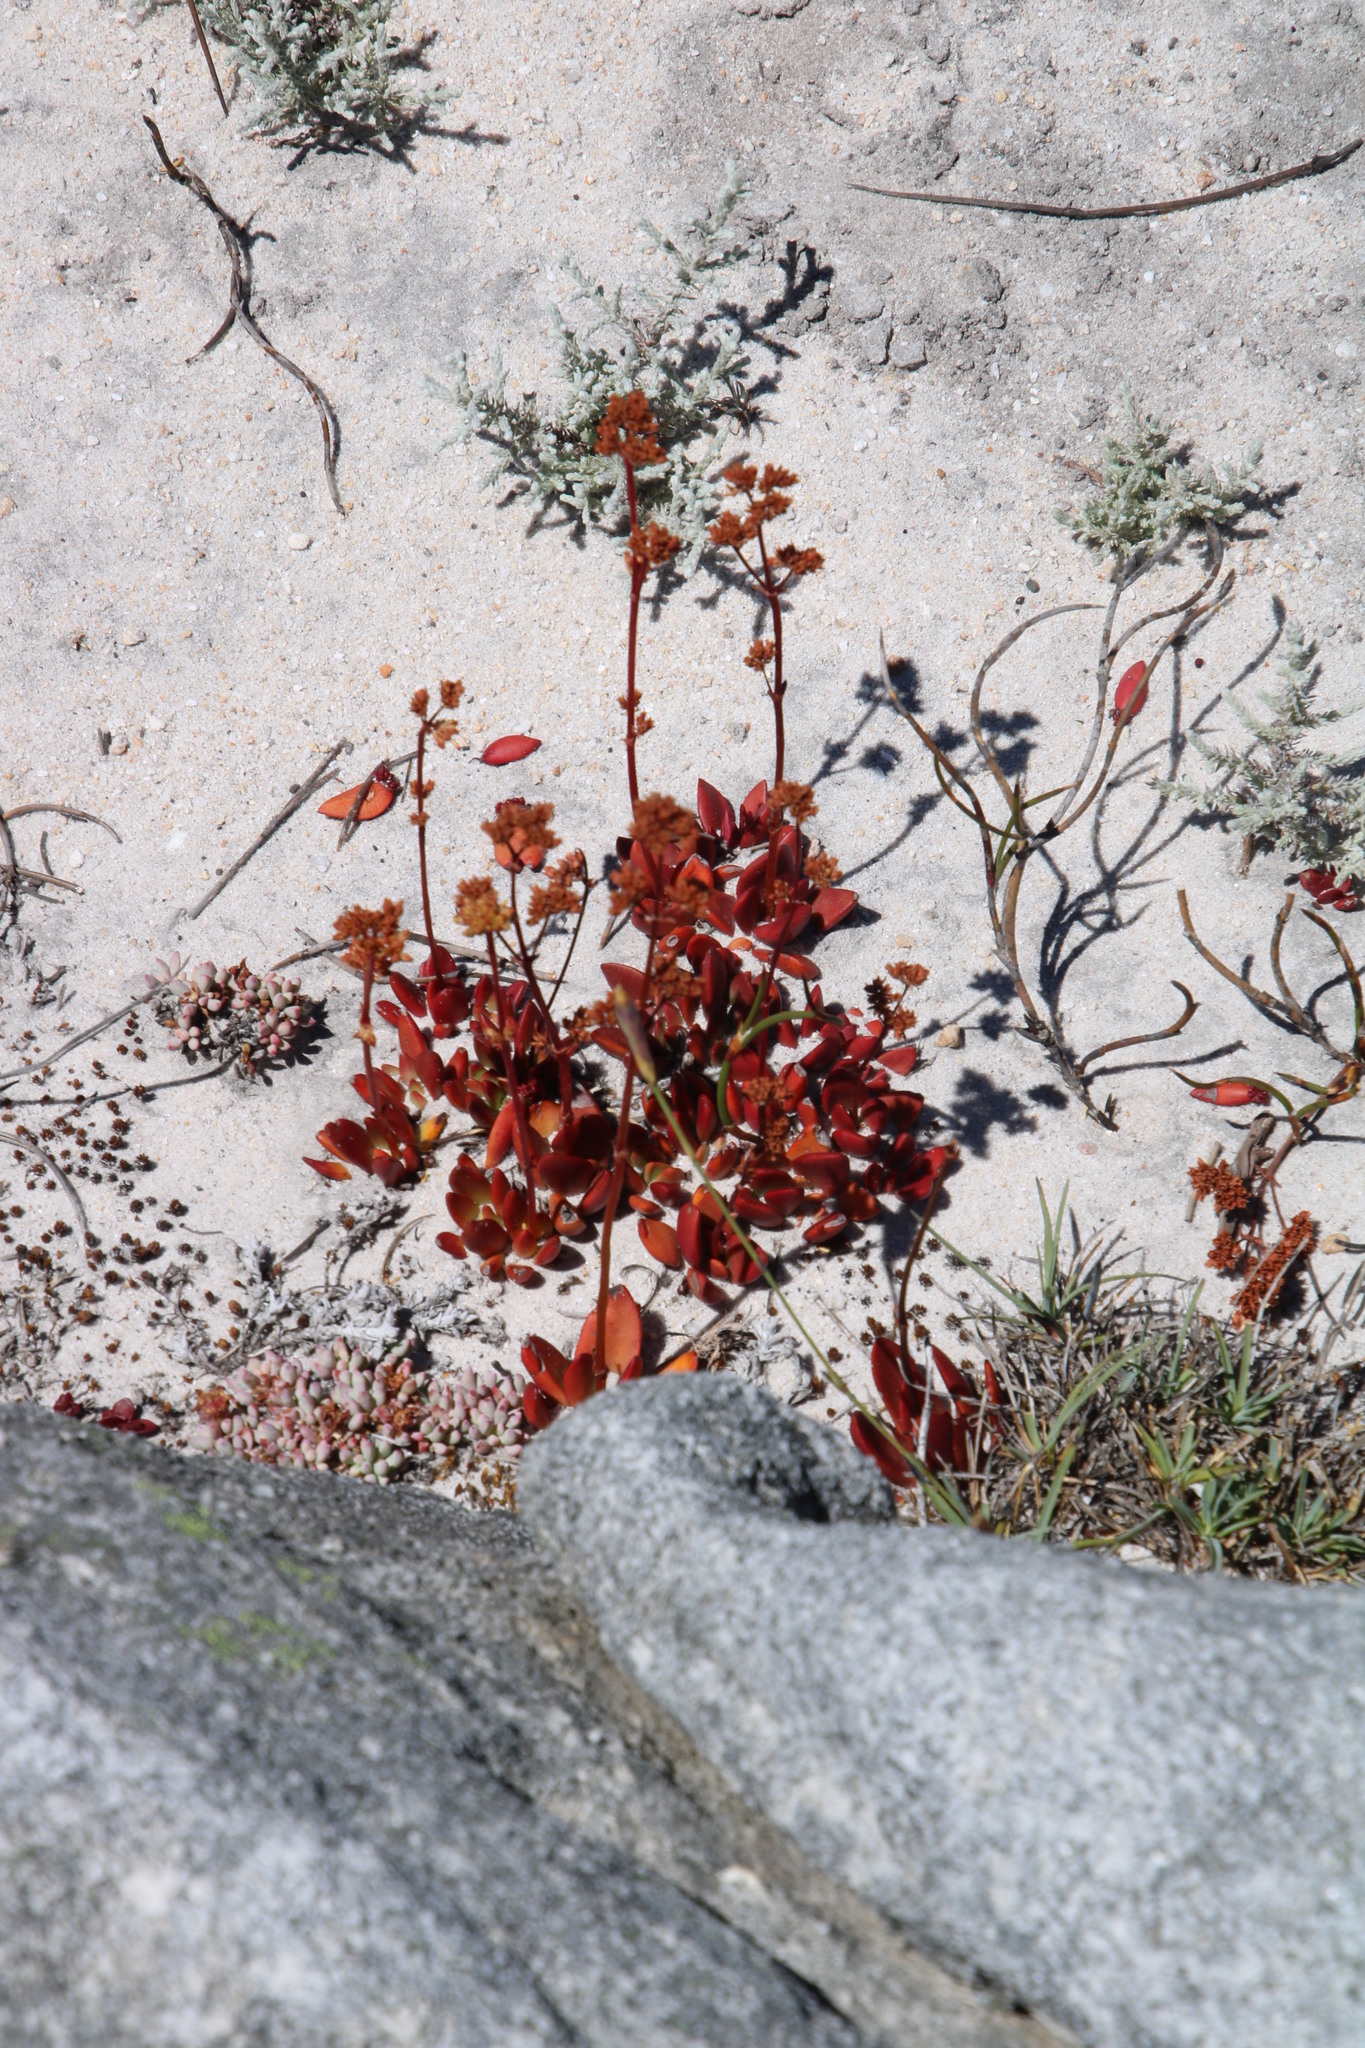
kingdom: Plantae
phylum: Tracheophyta
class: Magnoliopsida
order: Saxifragales
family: Crassulaceae
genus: Crassula
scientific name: Crassula nudicaulis
